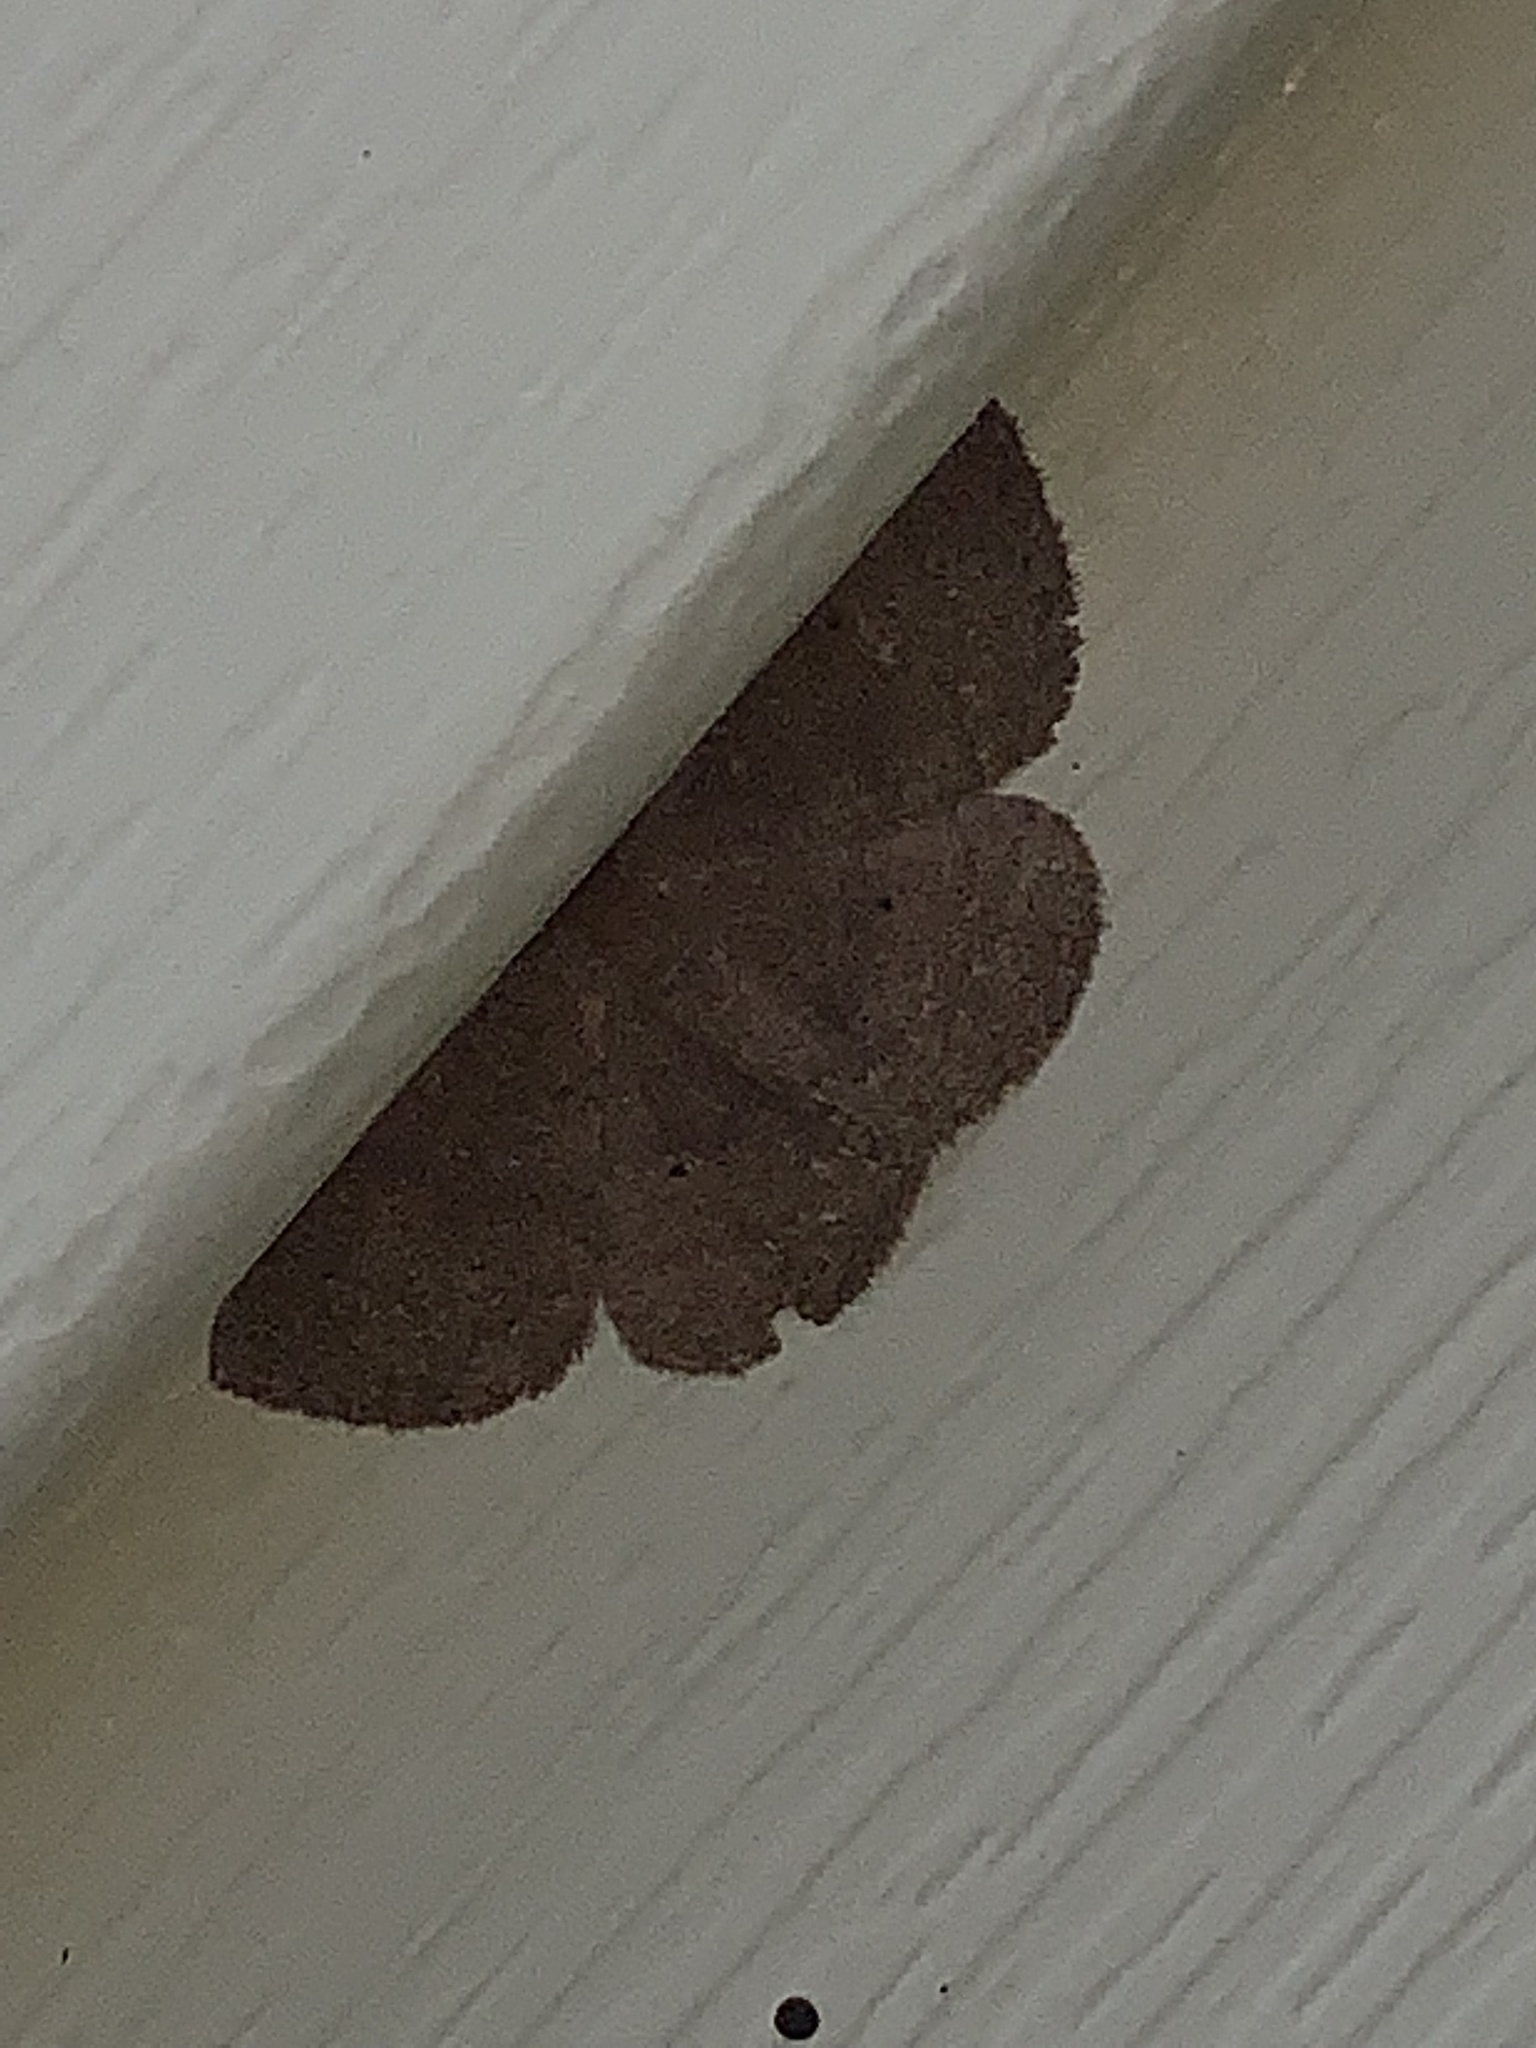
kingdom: Animalia
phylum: Arthropoda
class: Insecta
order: Lepidoptera
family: Geometridae
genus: Ilexia
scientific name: Ilexia intractata
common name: Black-dotted ruddy moth
